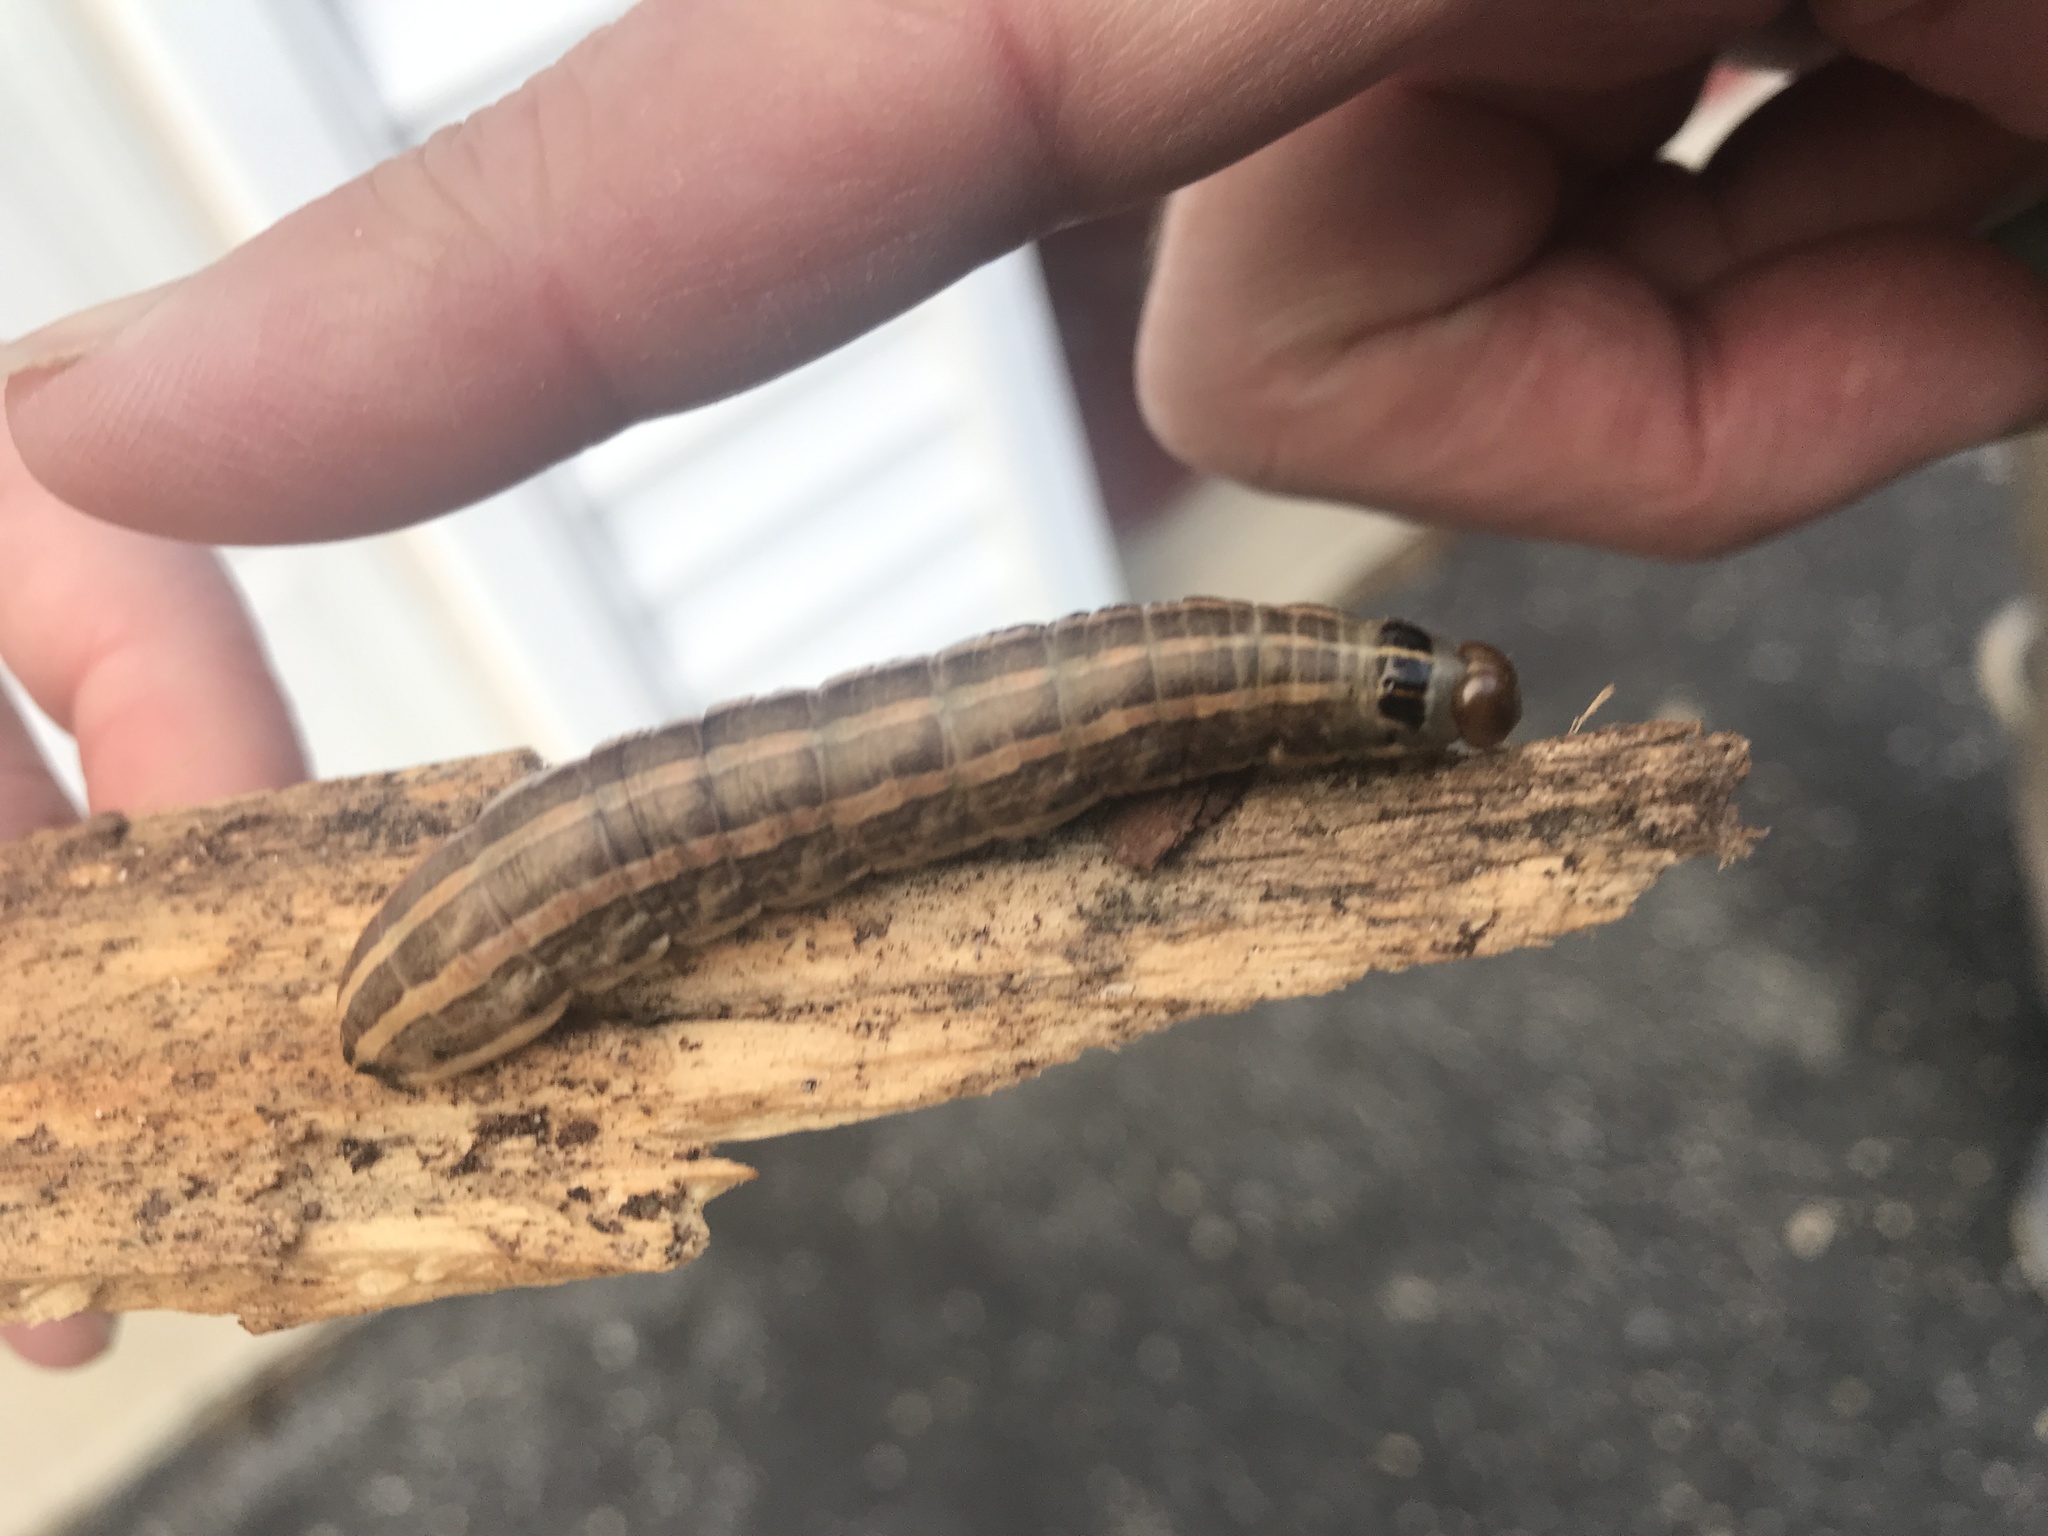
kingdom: Animalia
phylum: Arthropoda
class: Insecta
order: Lepidoptera
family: Noctuidae
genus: Nephelodes
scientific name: Nephelodes minians
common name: Bronzed cutworm
